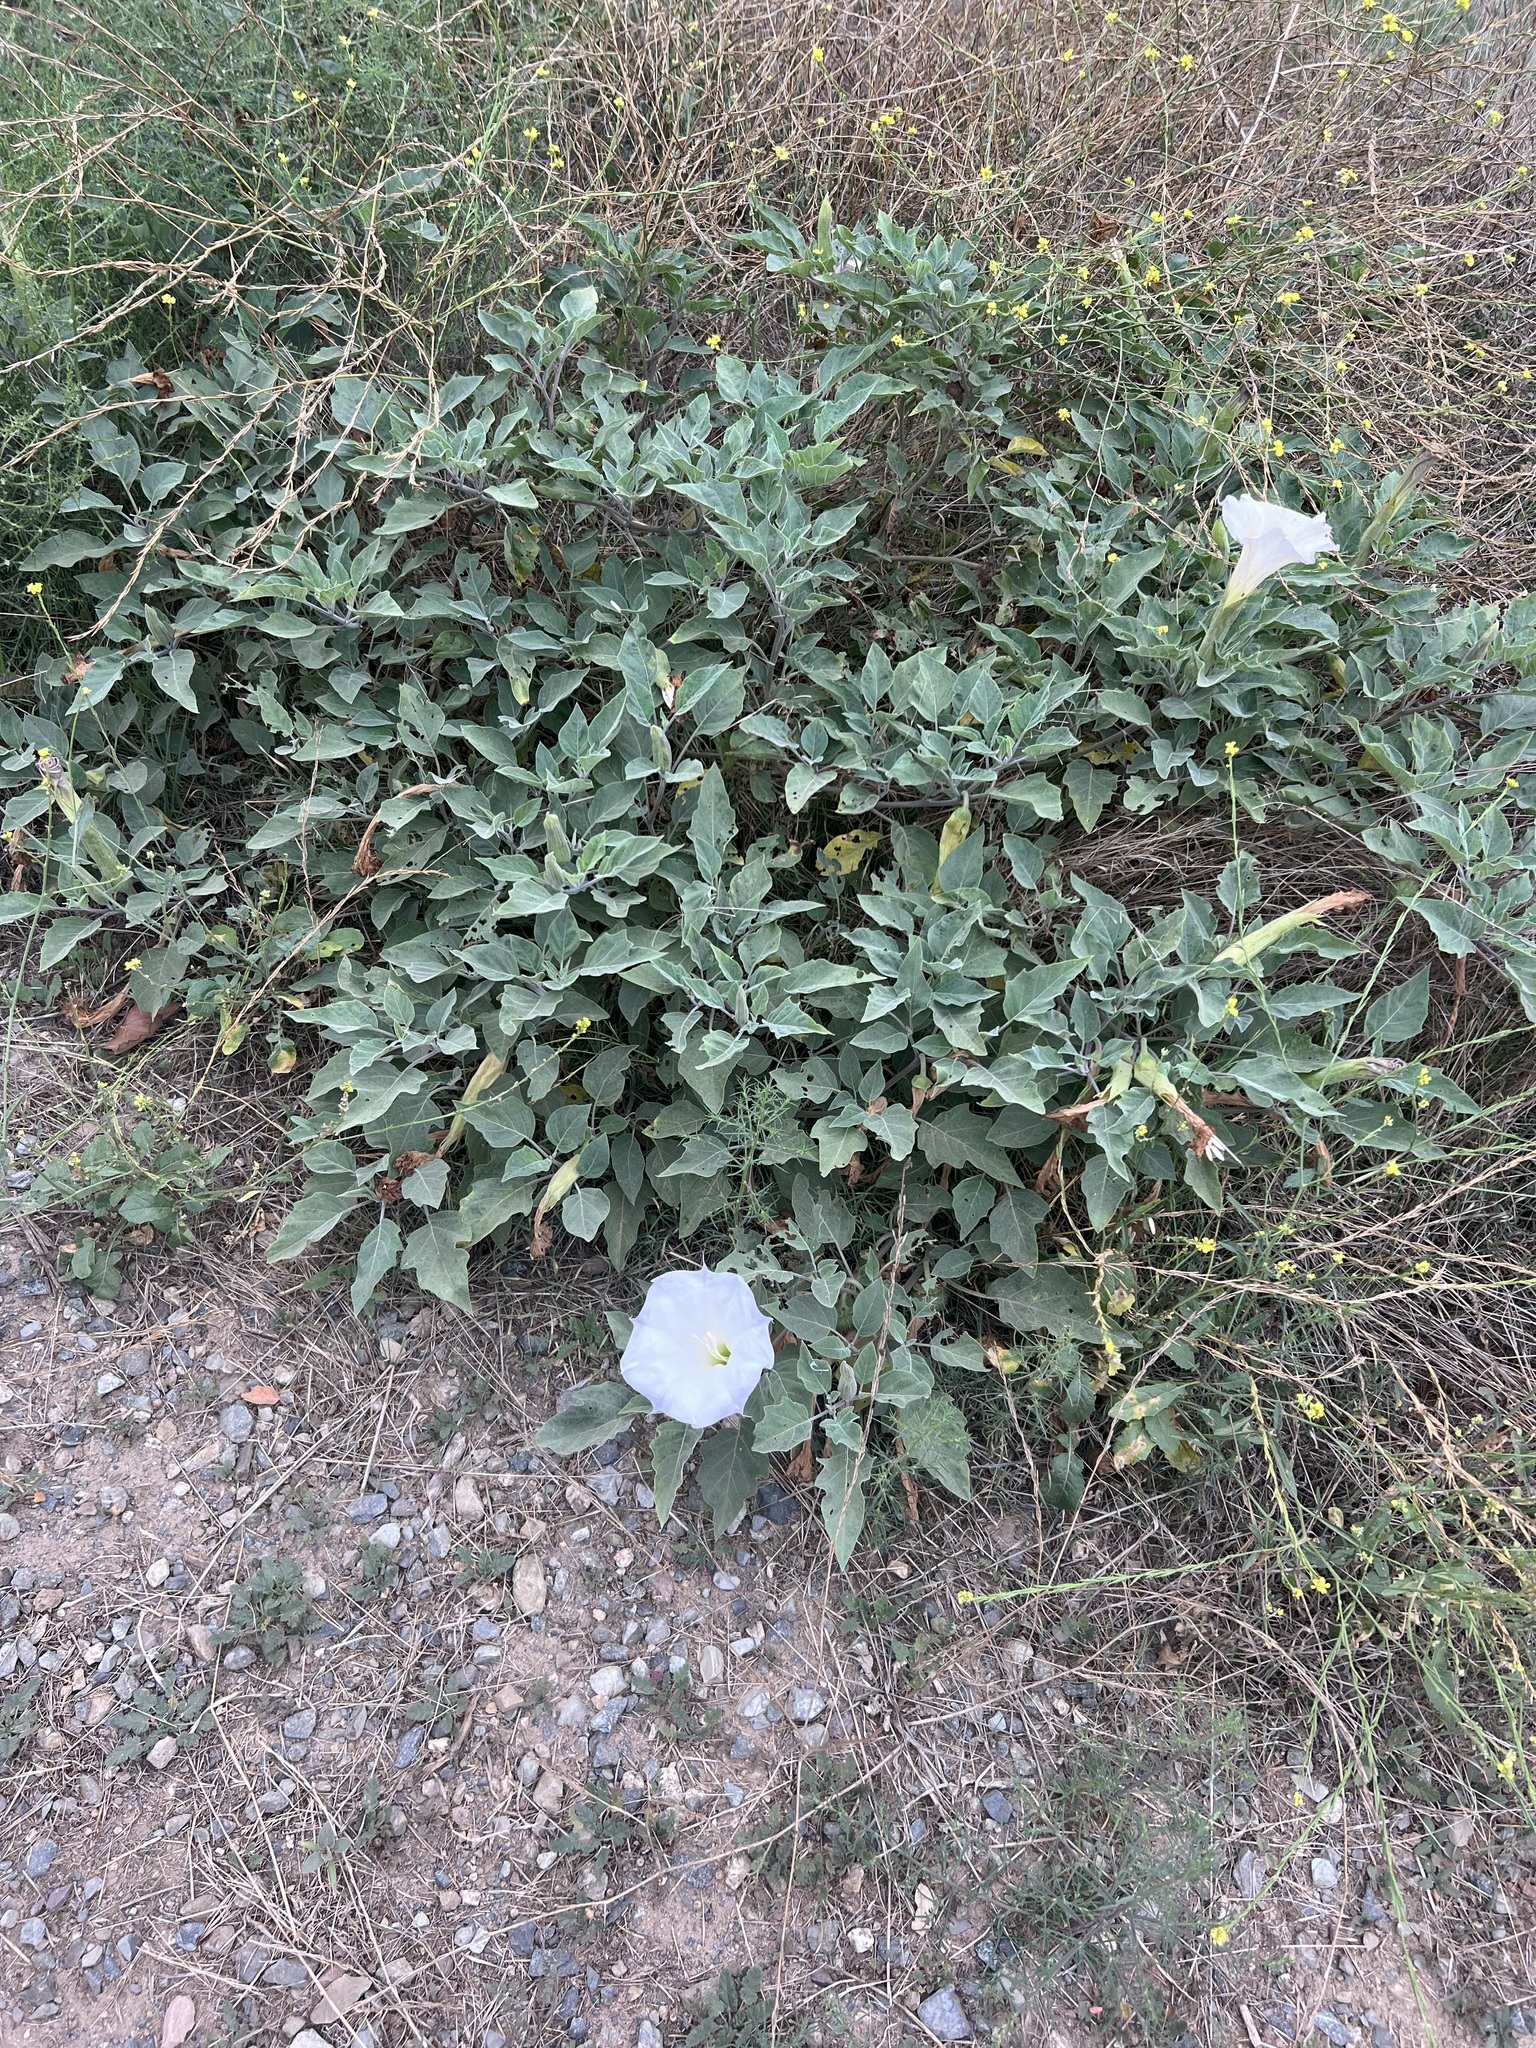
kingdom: Plantae
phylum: Tracheophyta
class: Magnoliopsida
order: Solanales
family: Solanaceae
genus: Datura
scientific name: Datura wrightii
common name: Sacred thorn-apple
